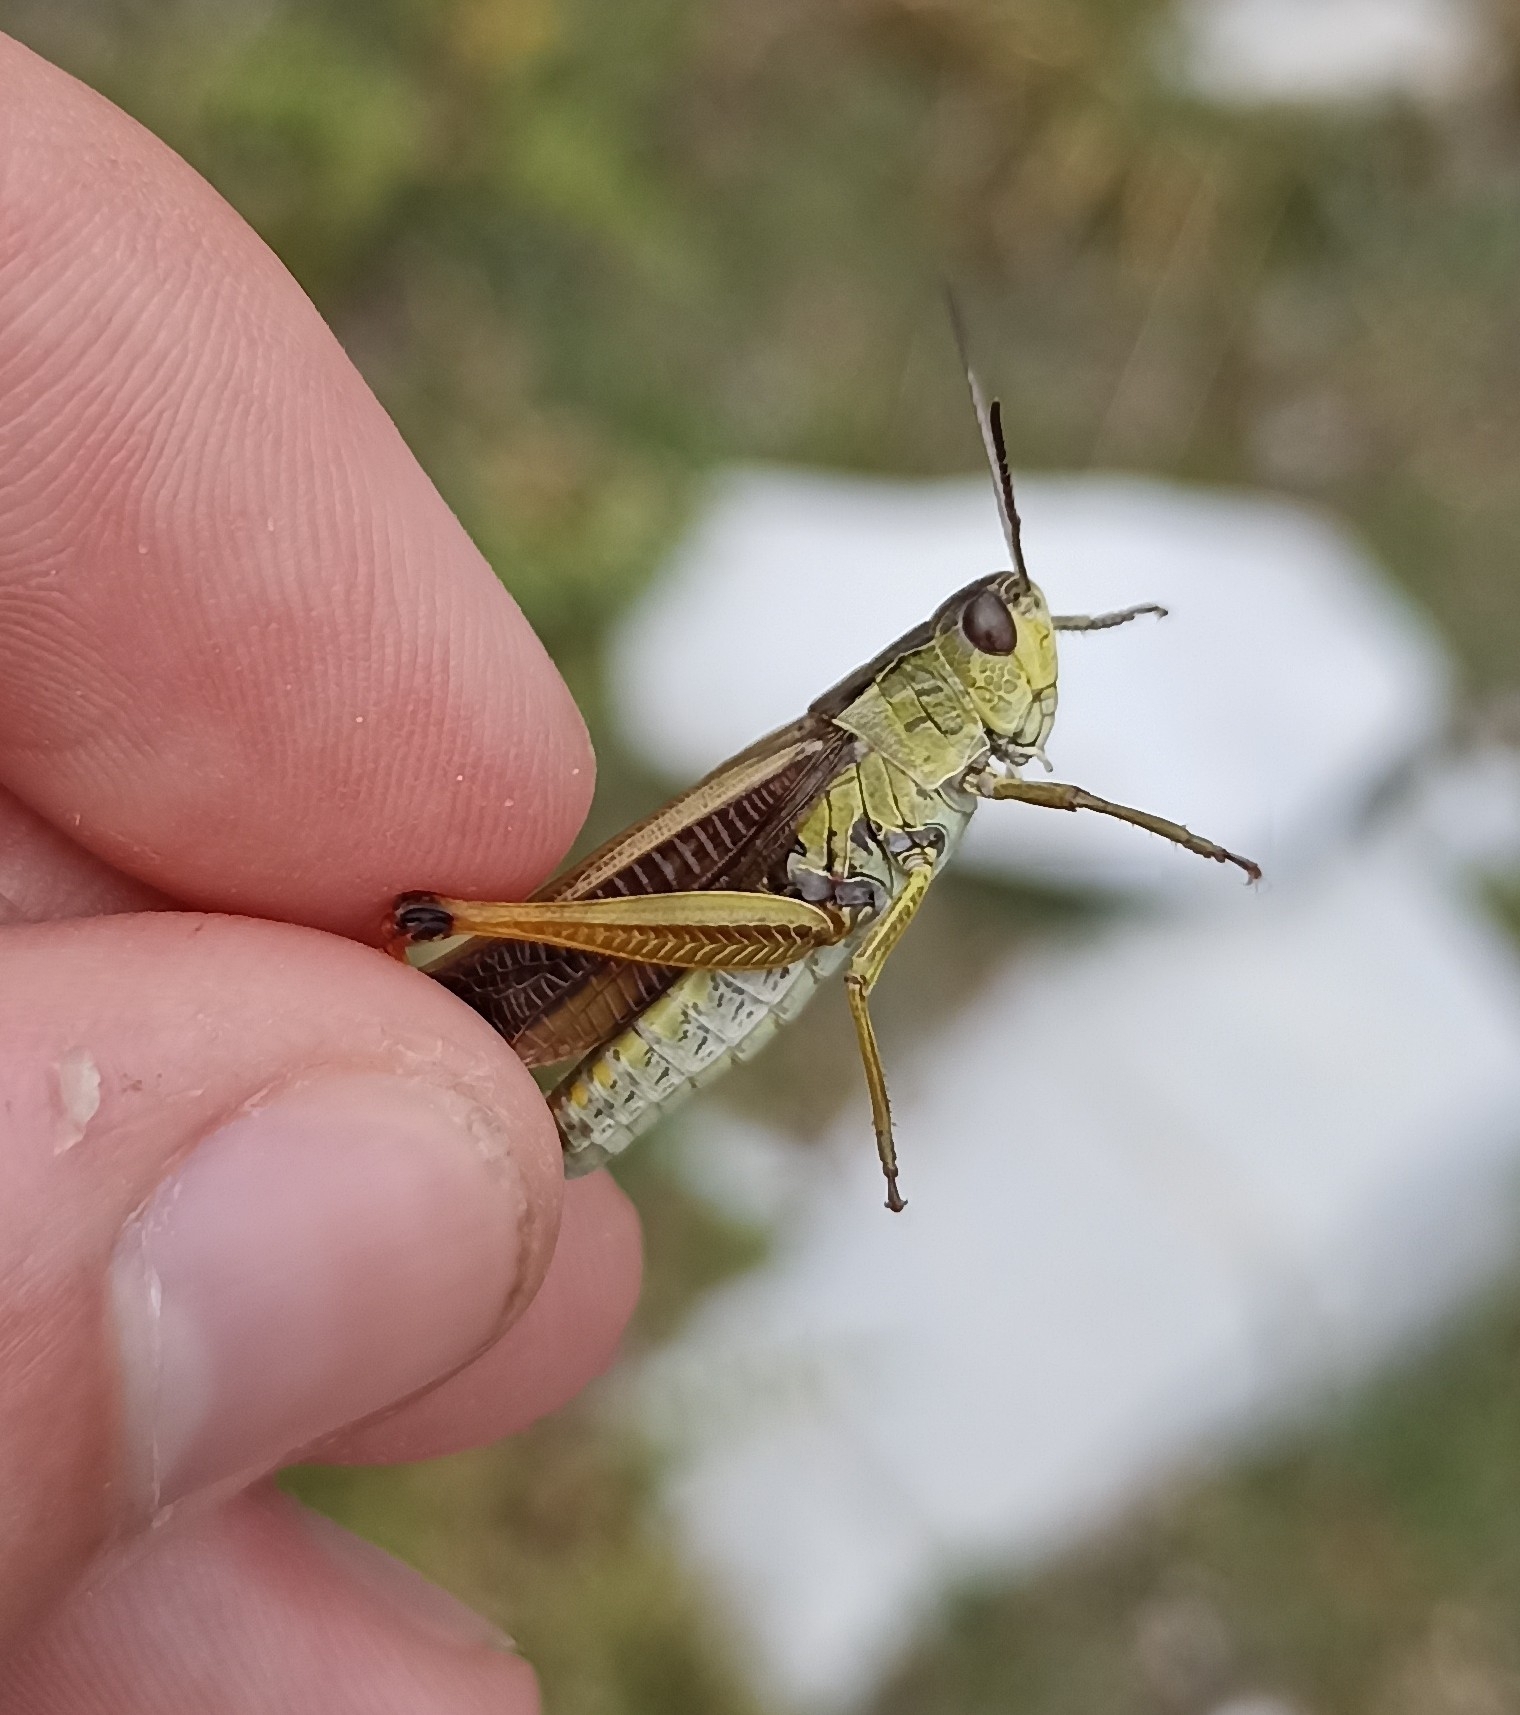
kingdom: Animalia
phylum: Arthropoda
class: Insecta
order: Orthoptera
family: Acrididae
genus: Stauroderus
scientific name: Stauroderus scalaris
